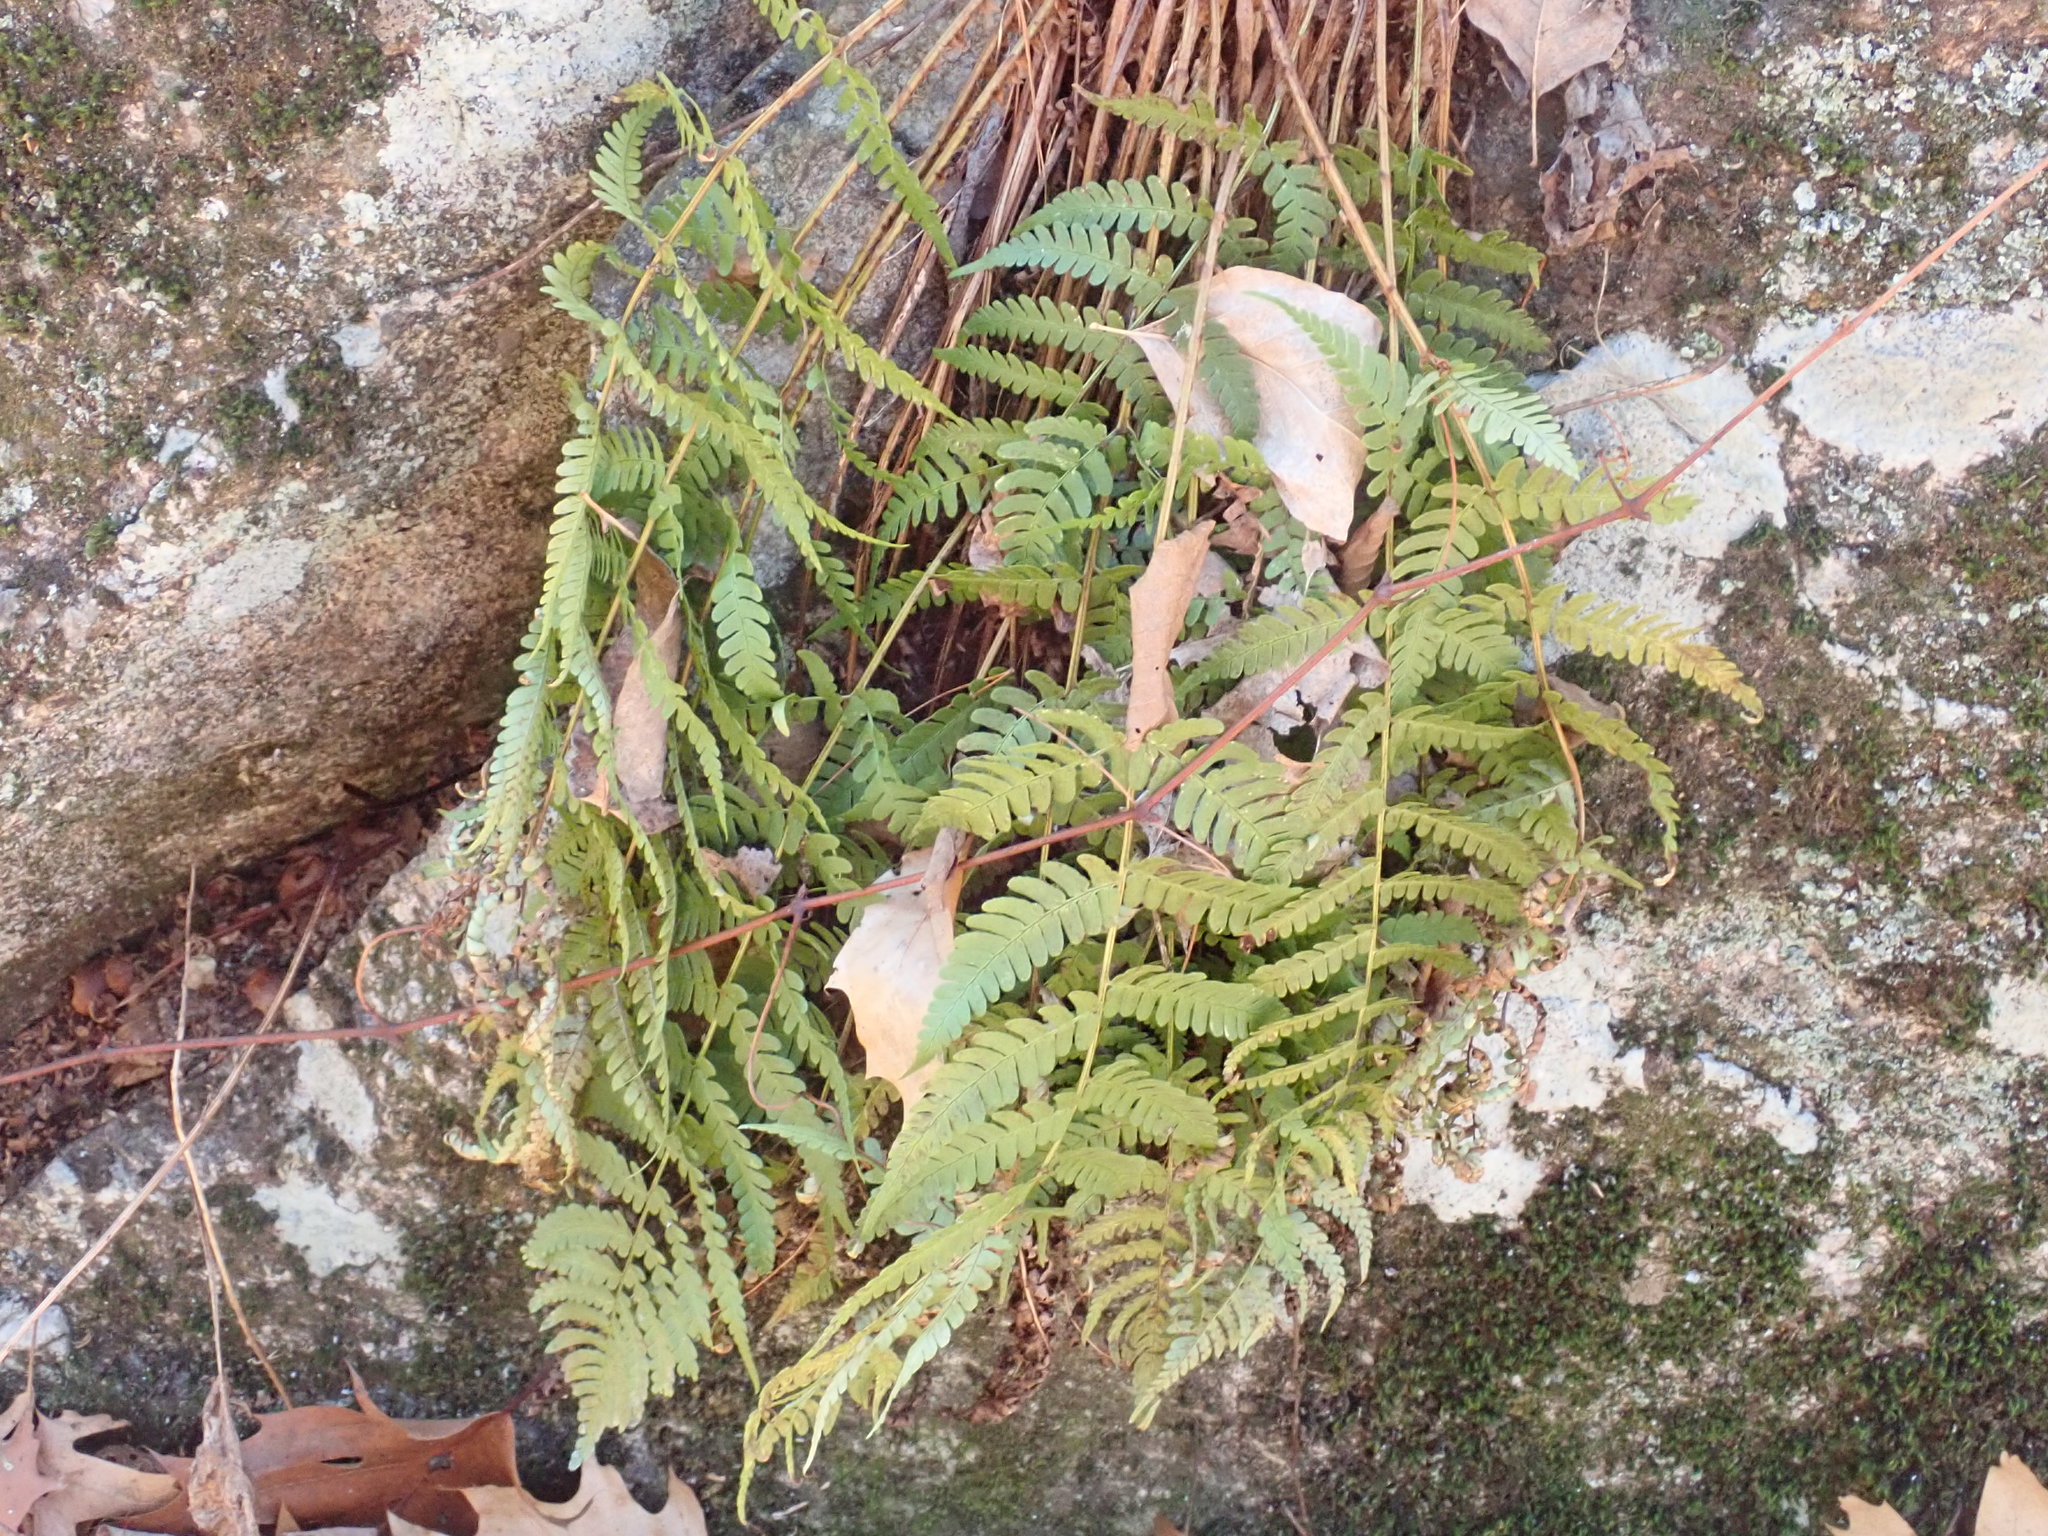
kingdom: Plantae
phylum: Tracheophyta
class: Polypodiopsida
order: Polypodiales
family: Dryopteridaceae
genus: Dryopteris
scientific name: Dryopteris marginalis
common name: Marginal wood fern
